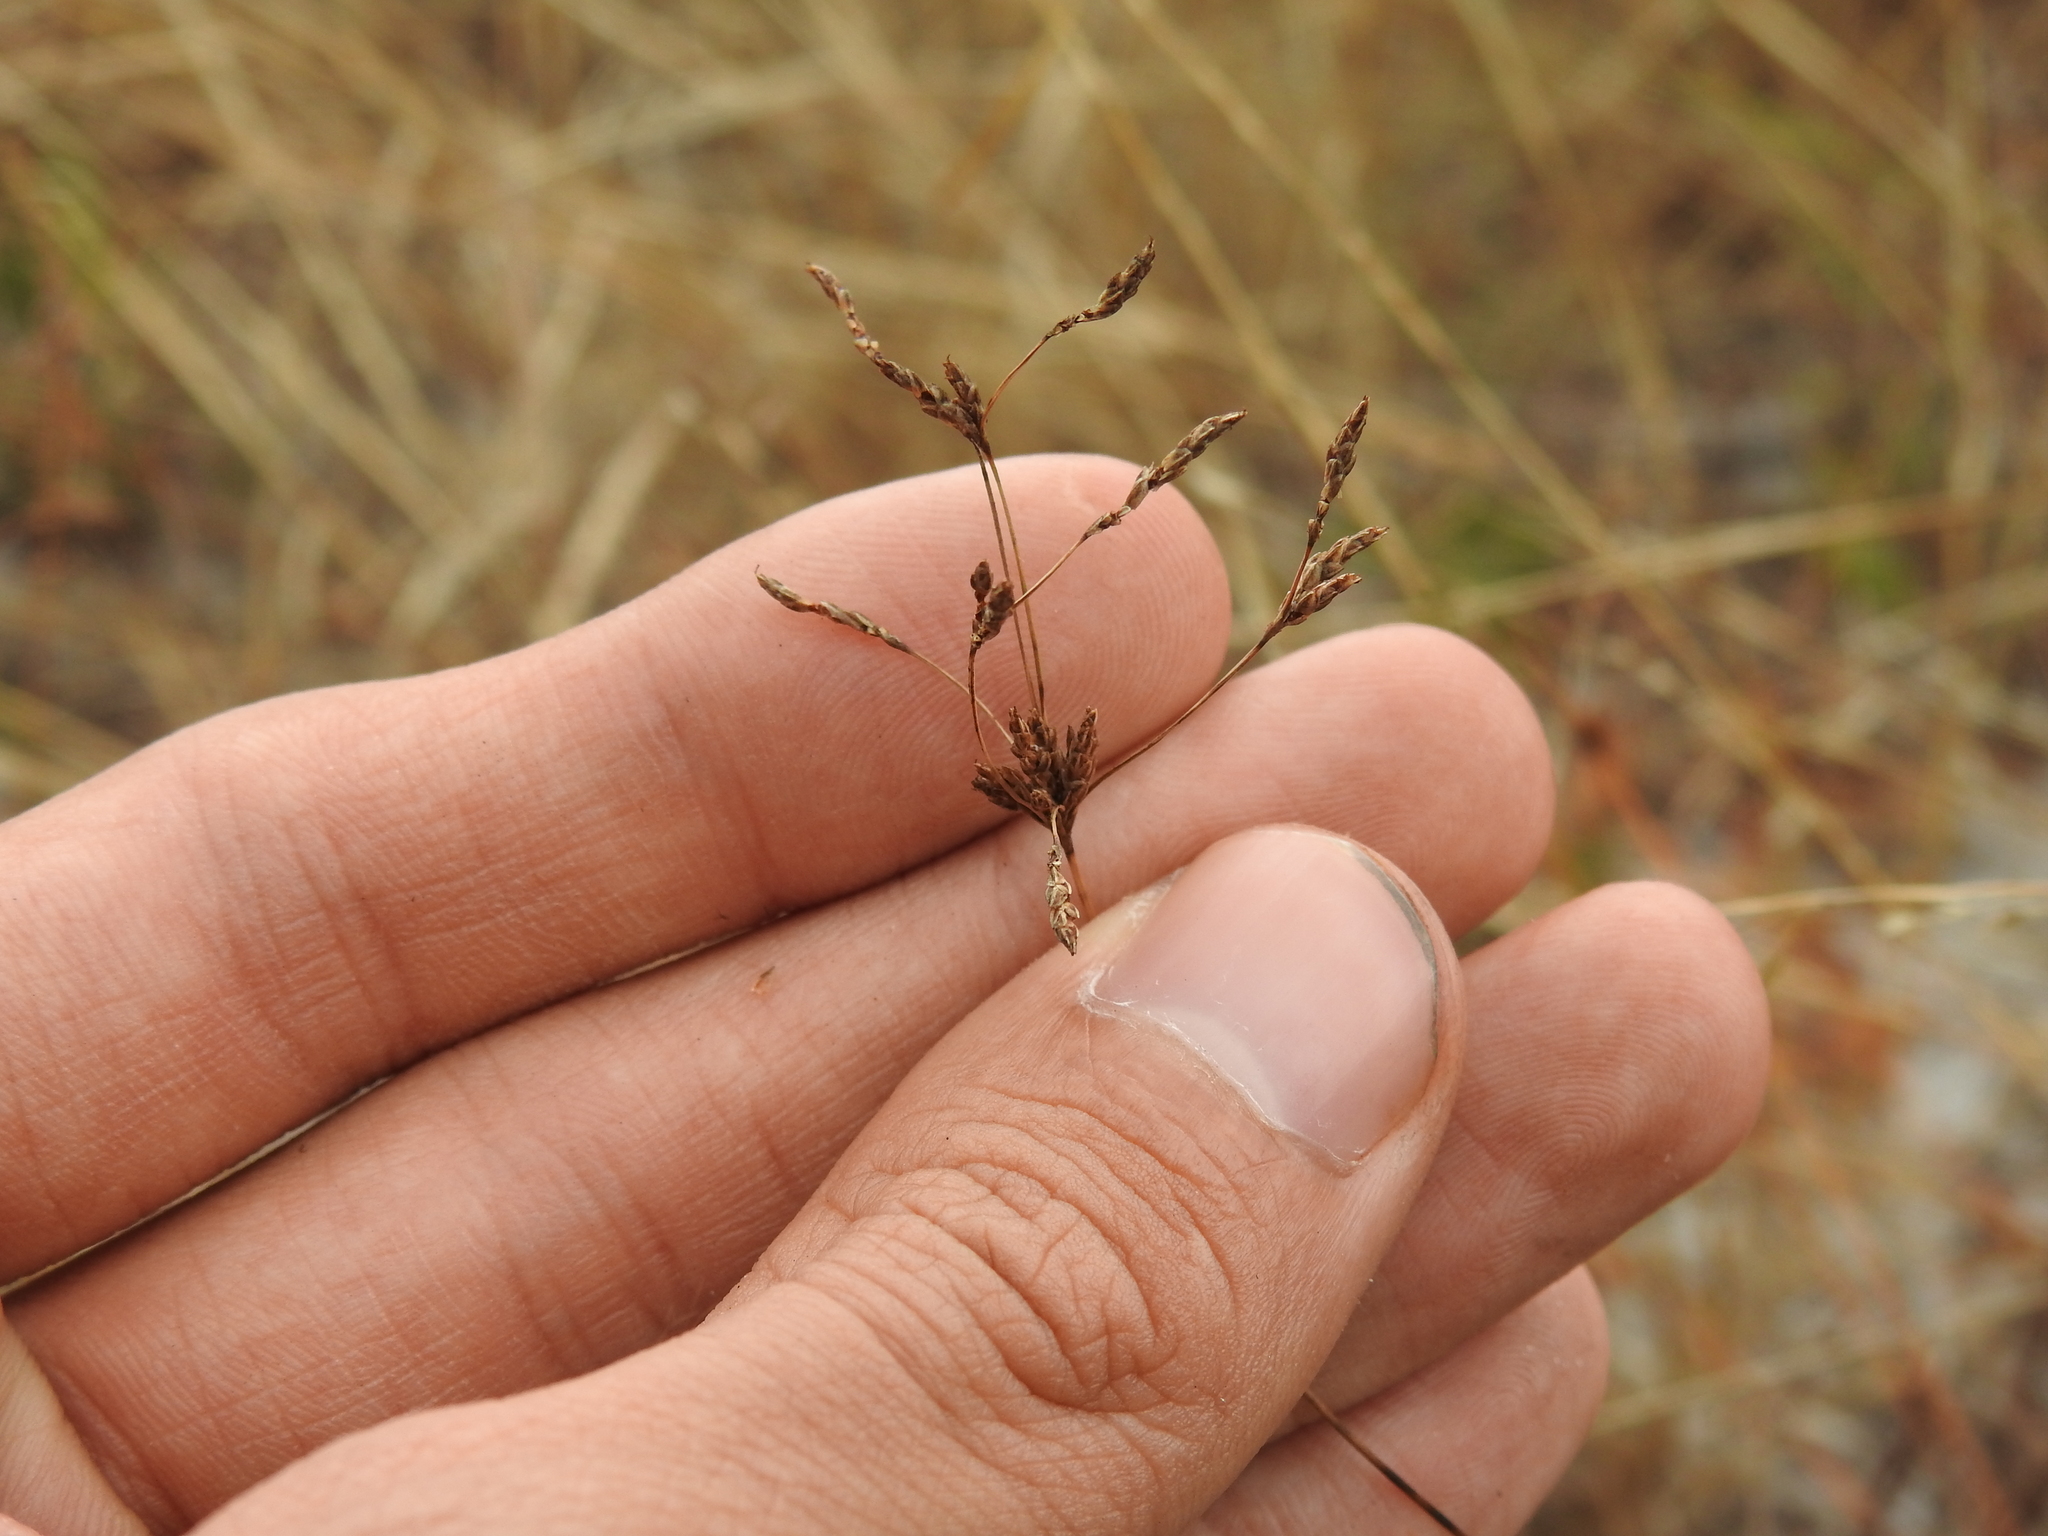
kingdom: Plantae
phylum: Tracheophyta
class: Liliopsida
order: Poales
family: Cyperaceae
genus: Bulbostylis
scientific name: Bulbostylis ciliatifolia
